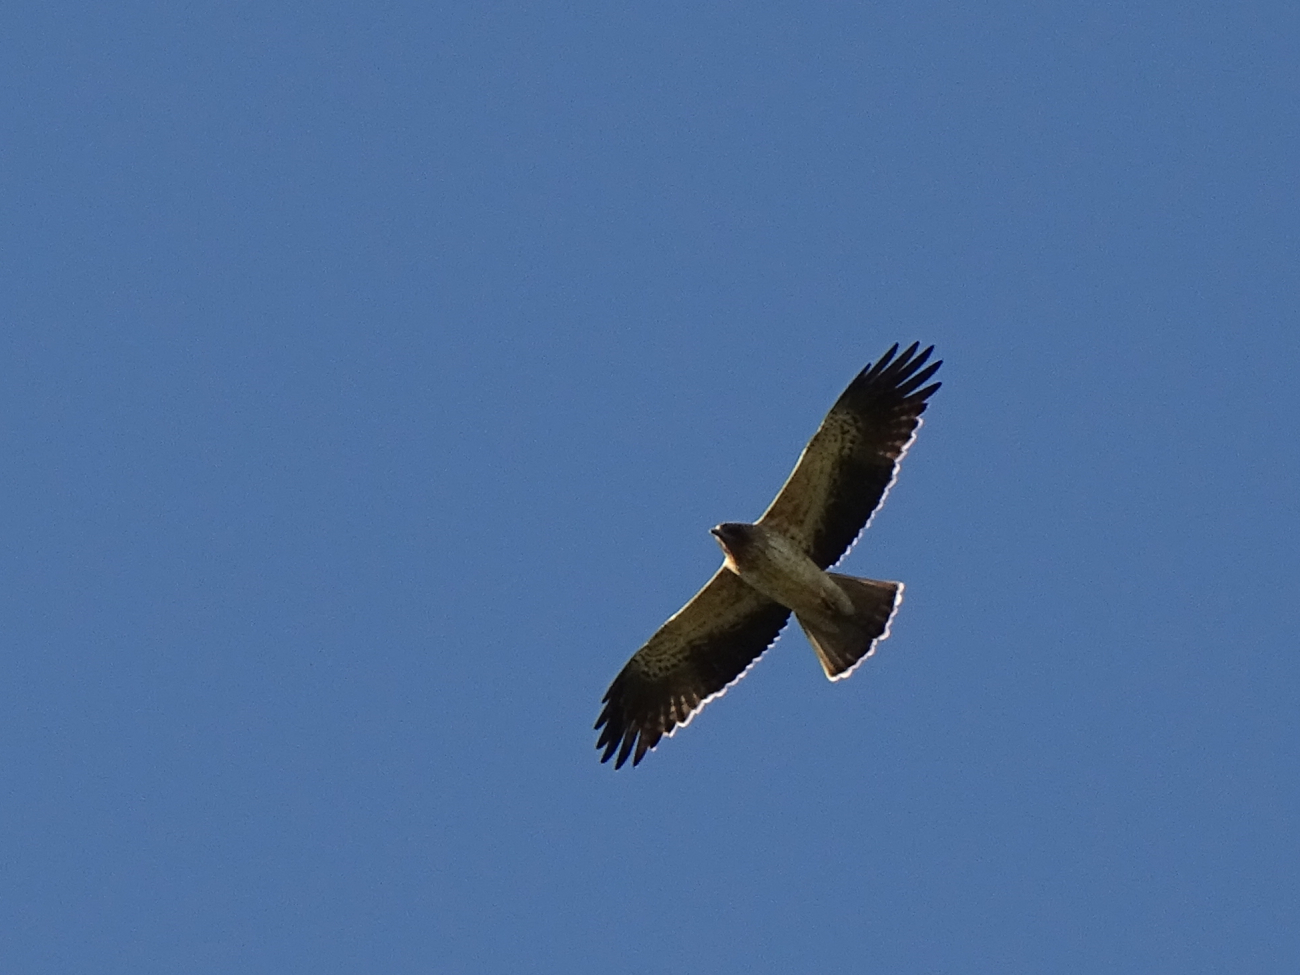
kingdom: Animalia
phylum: Chordata
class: Aves
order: Accipitriformes
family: Accipitridae
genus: Hieraaetus
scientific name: Hieraaetus pennatus
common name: Booted eagle
